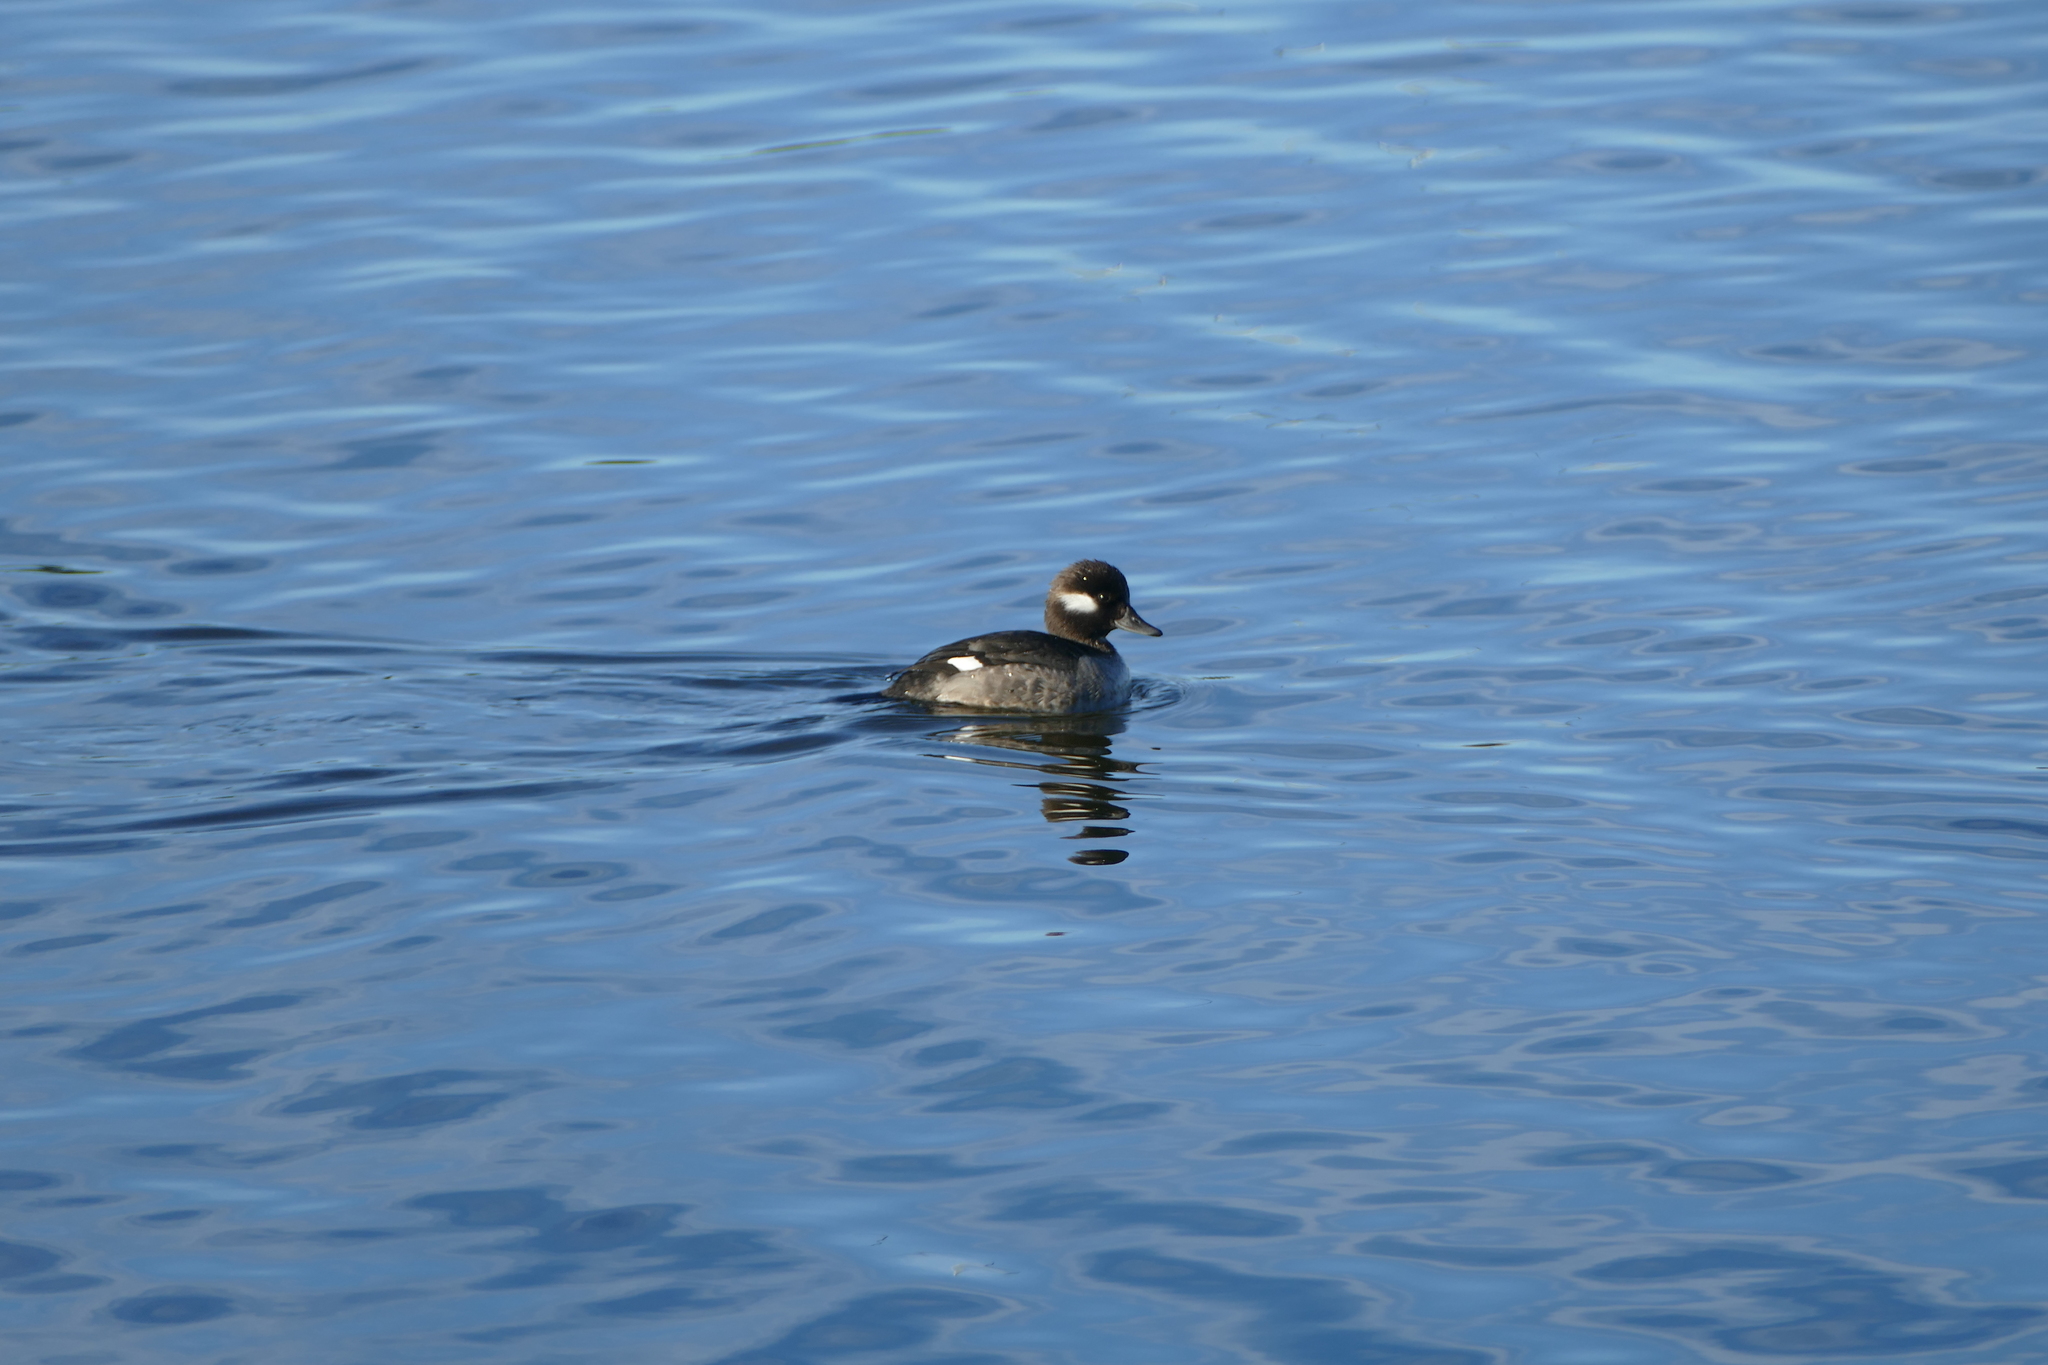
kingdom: Animalia
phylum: Chordata
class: Aves
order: Anseriformes
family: Anatidae
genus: Bucephala
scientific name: Bucephala albeola
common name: Bufflehead
